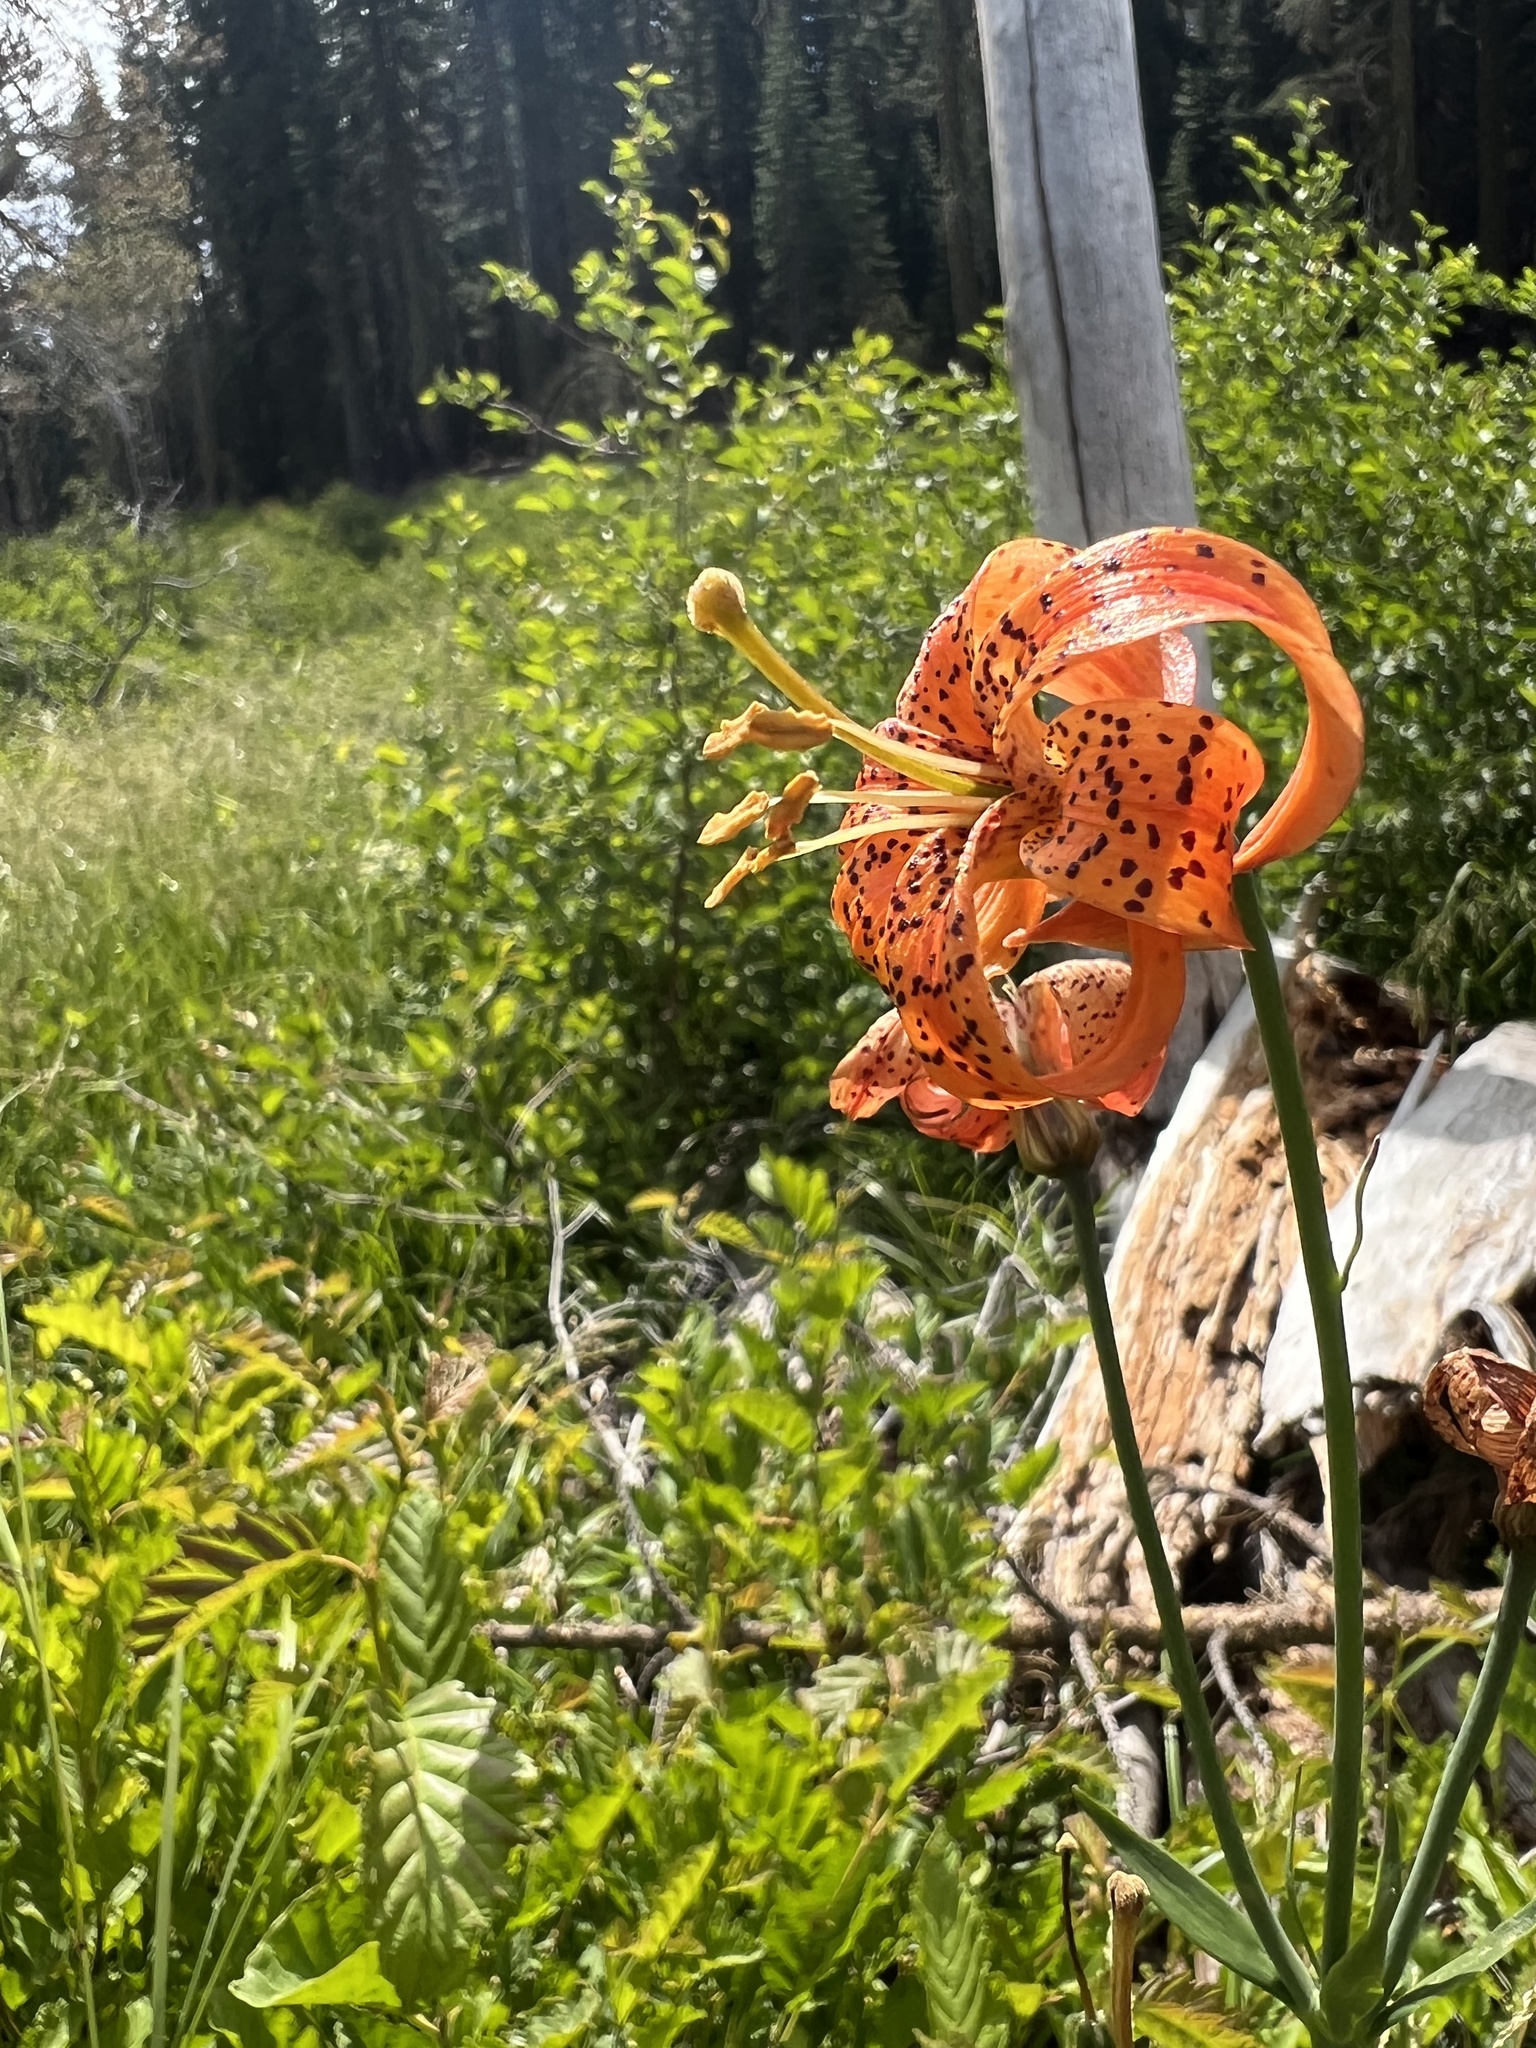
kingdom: Plantae
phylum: Tracheophyta
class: Liliopsida
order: Liliales
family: Liliaceae
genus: Lilium
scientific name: Lilium pardalinum
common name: Panther lily
